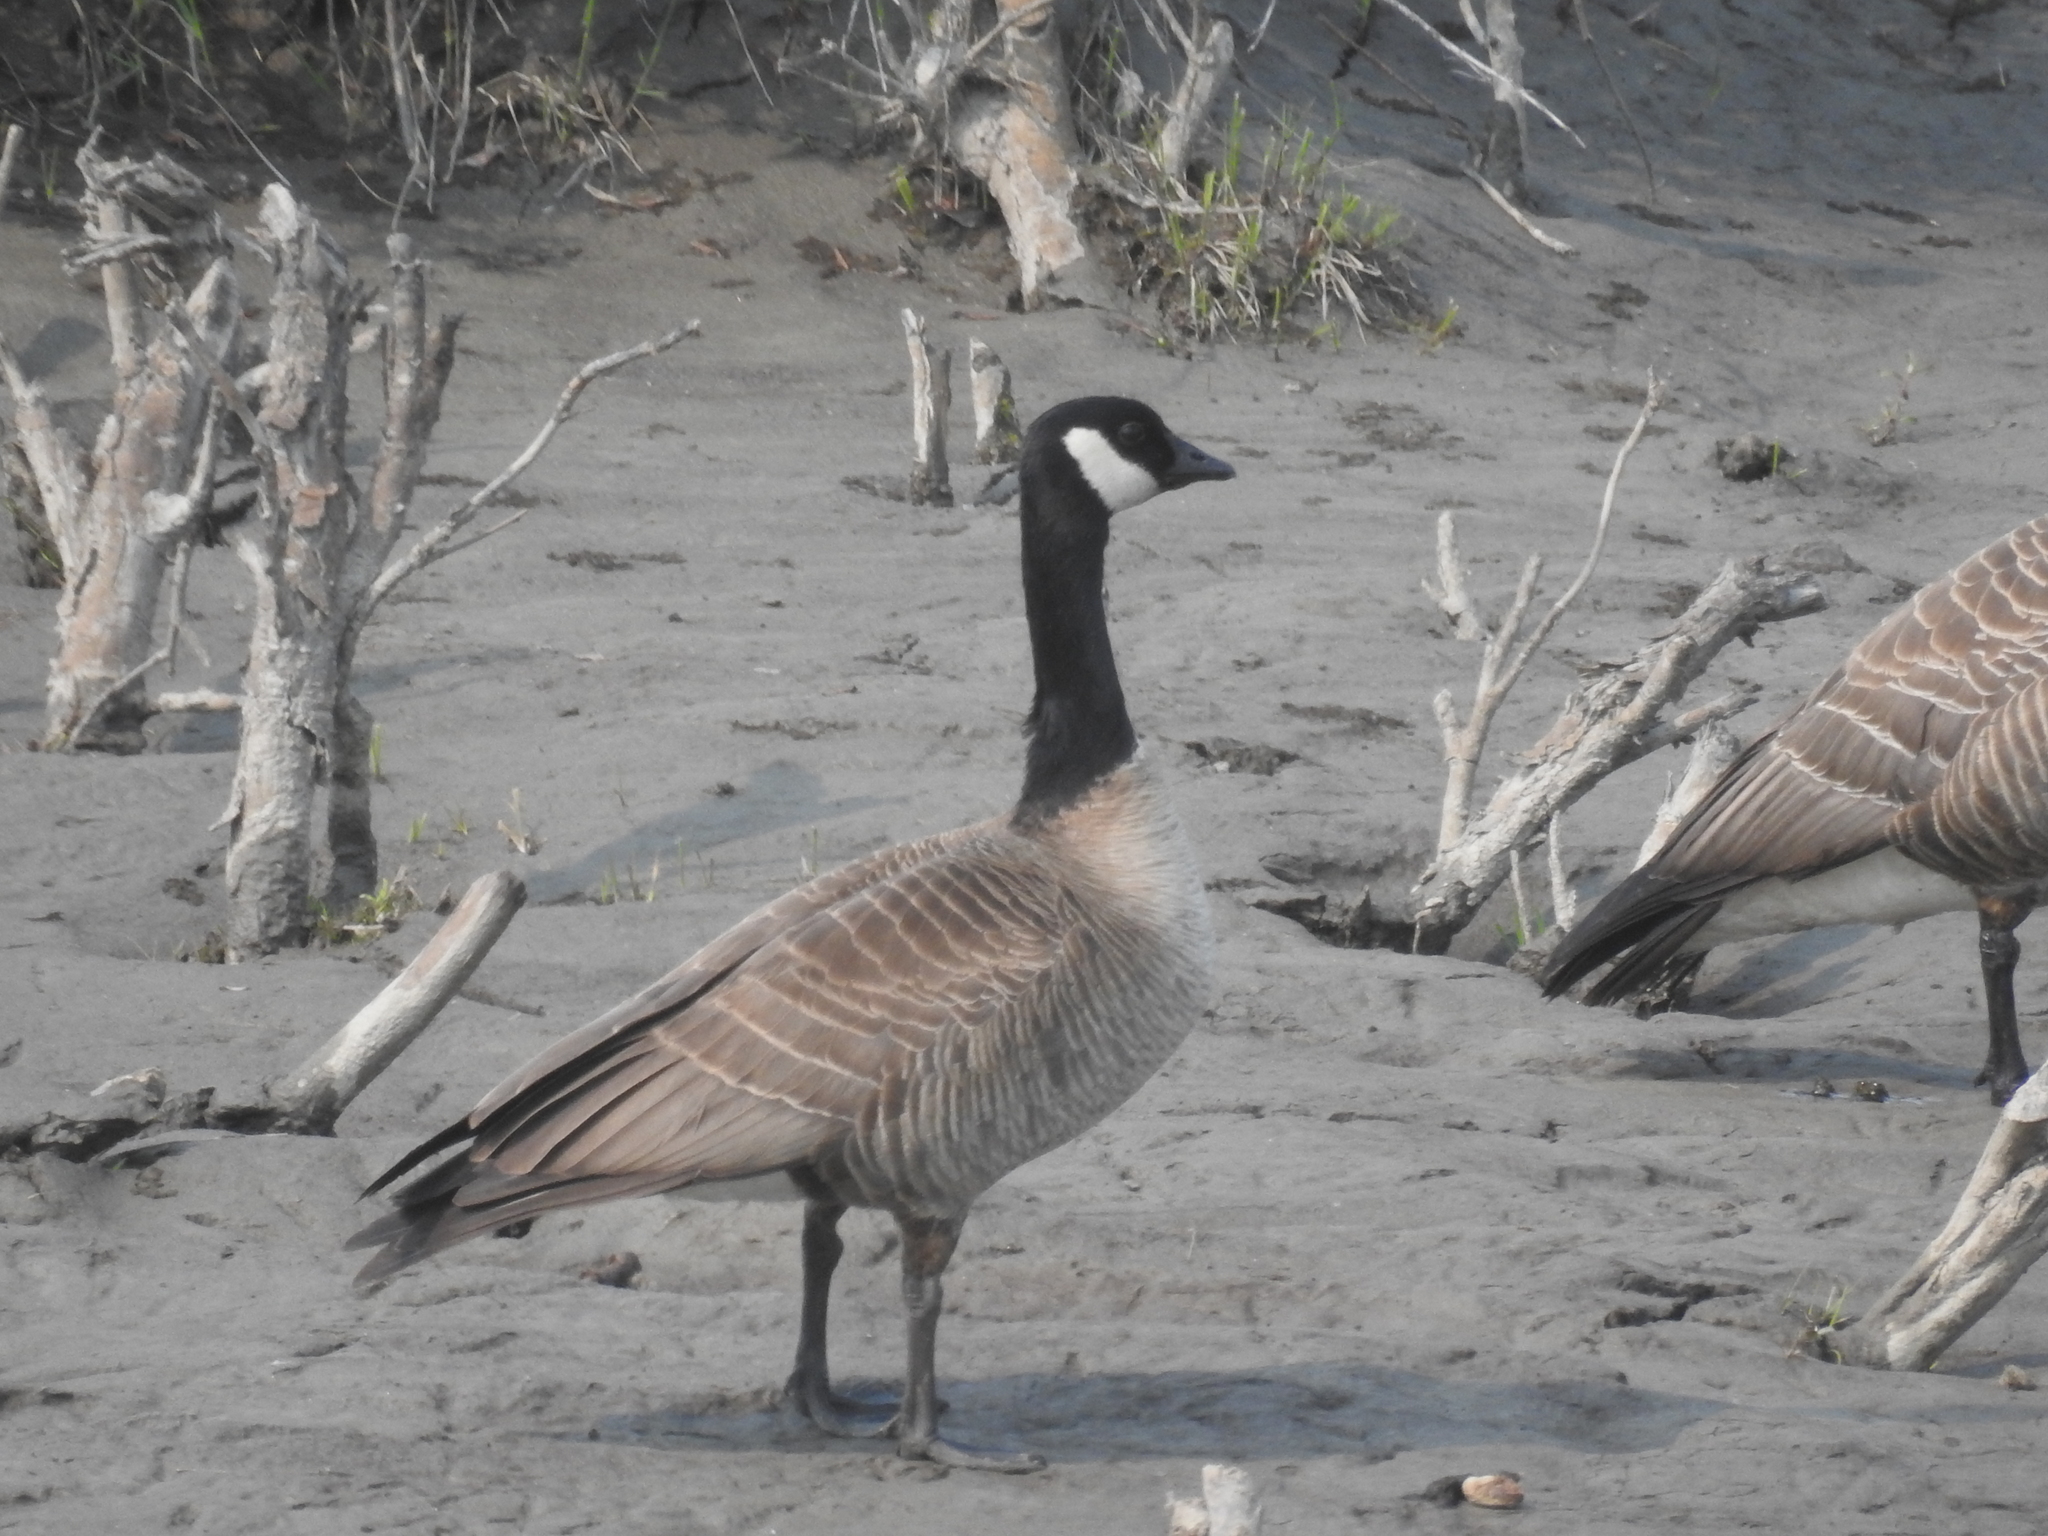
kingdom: Animalia
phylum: Chordata
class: Aves
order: Anseriformes
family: Anatidae
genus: Branta
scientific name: Branta hutchinsii
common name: Cackling goose
